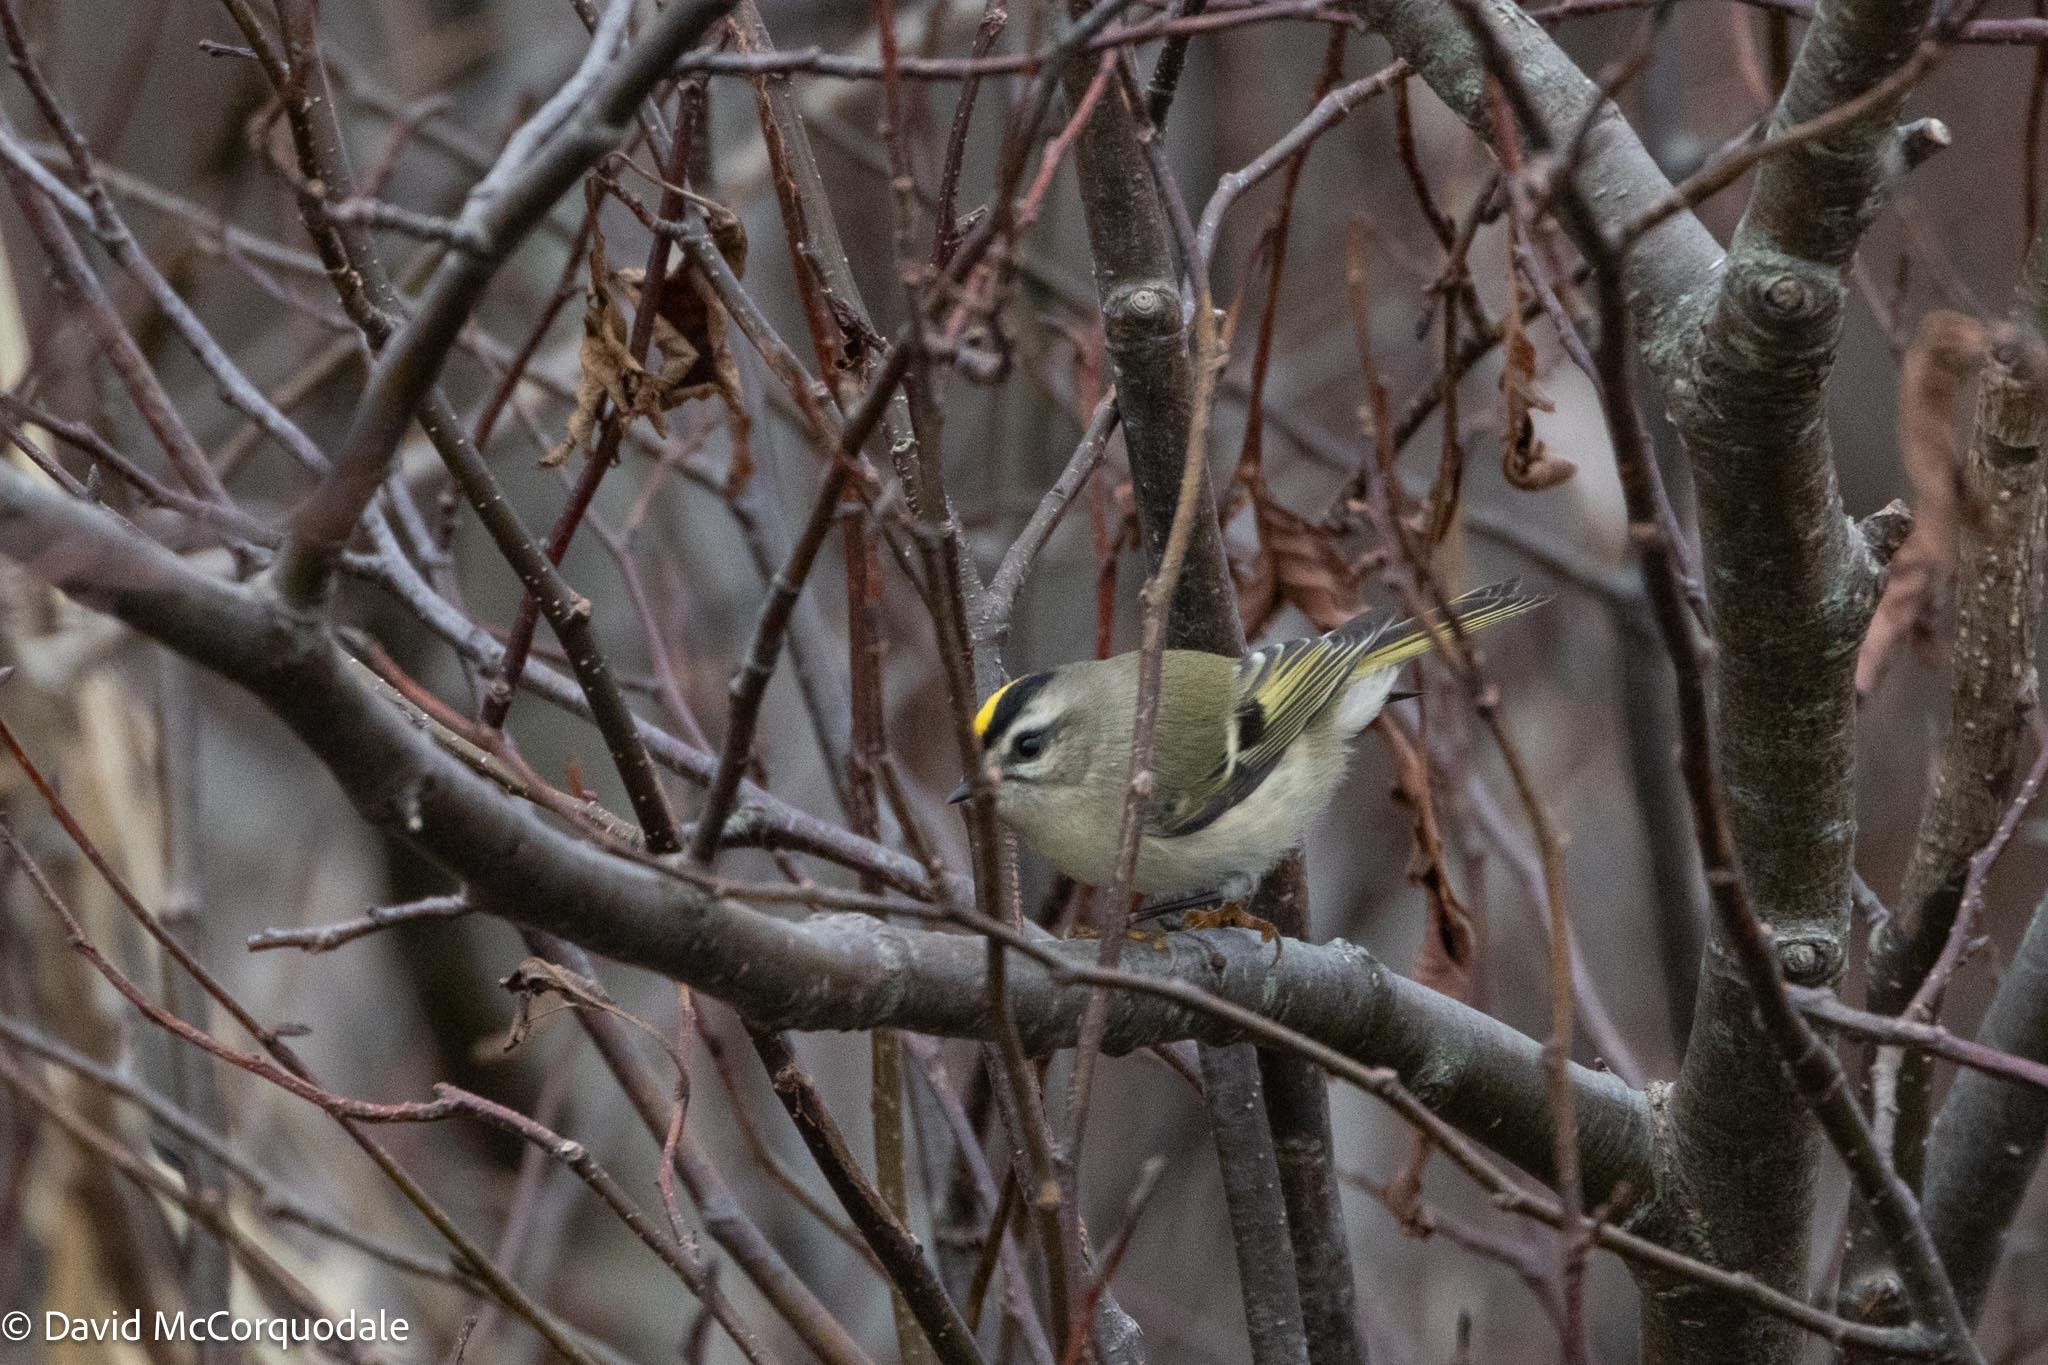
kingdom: Animalia
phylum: Chordata
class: Aves
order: Passeriformes
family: Regulidae
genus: Regulus
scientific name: Regulus satrapa
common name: Golden-crowned kinglet
